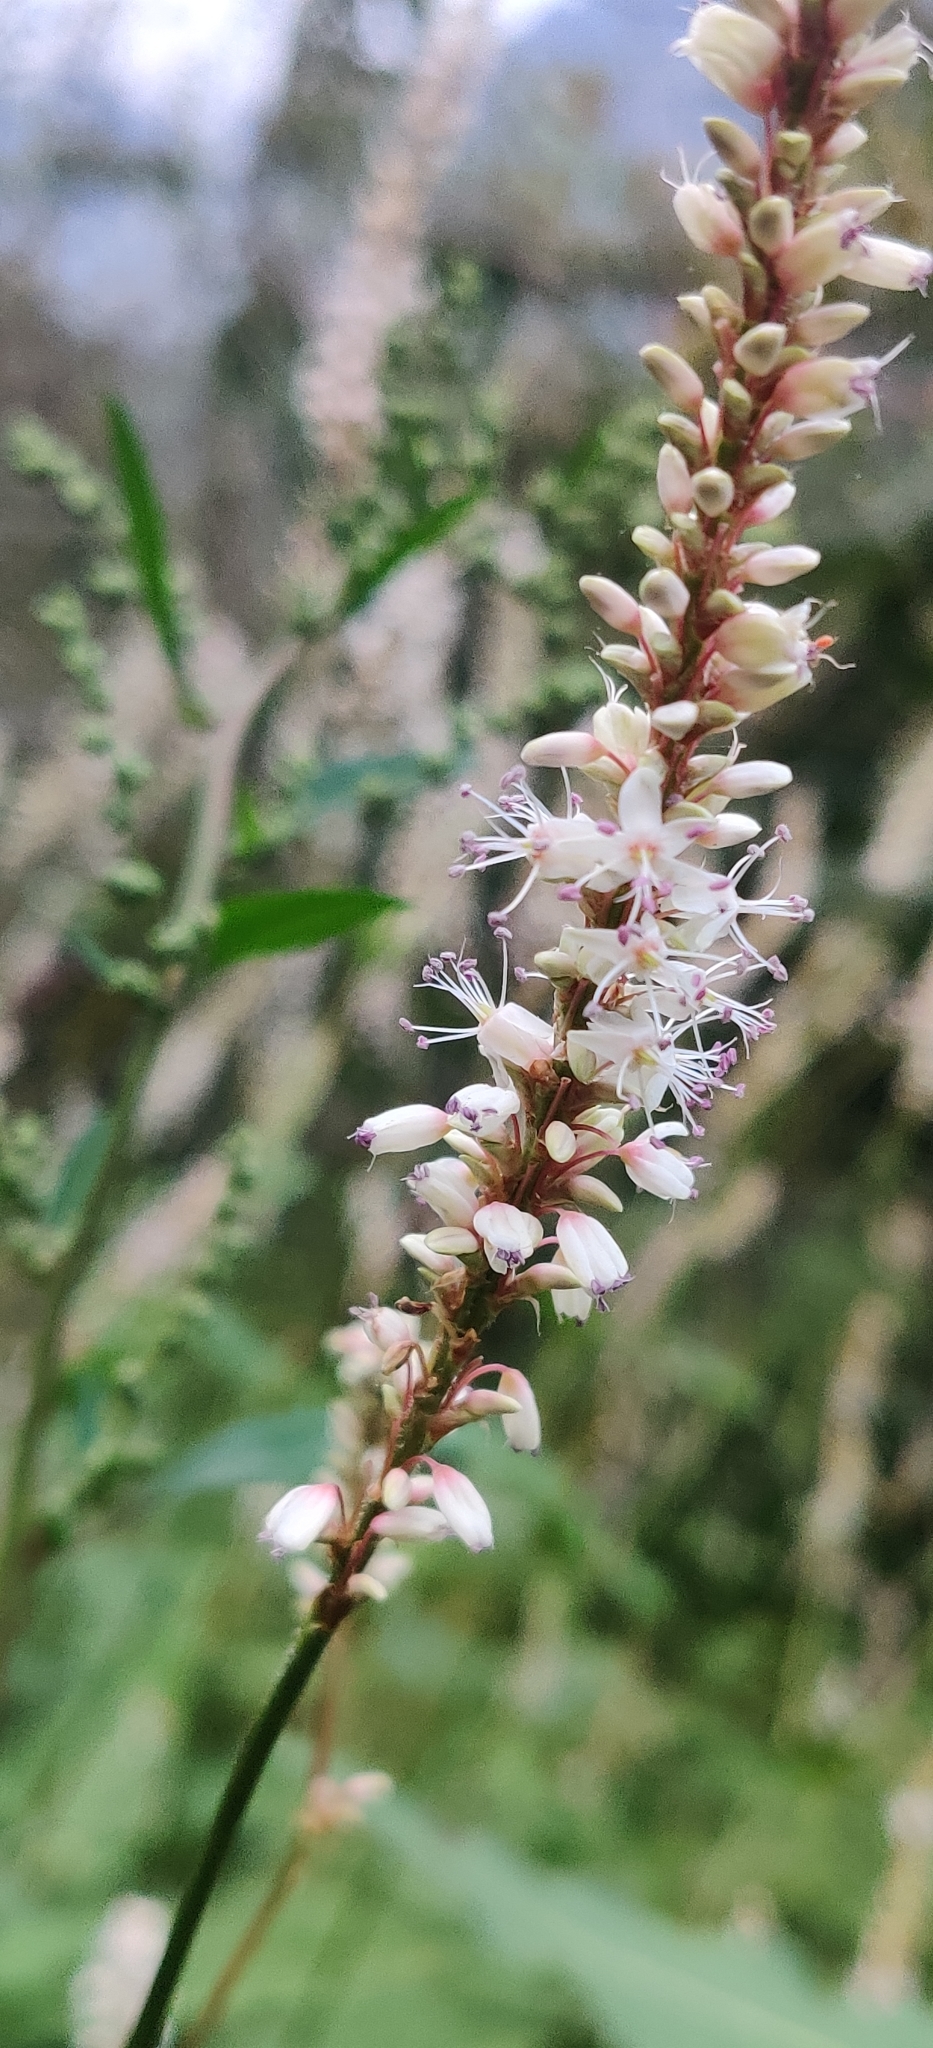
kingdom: Plantae
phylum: Tracheophyta
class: Magnoliopsida
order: Caryophyllales
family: Polygonaceae
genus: Bistorta
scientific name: Bistorta vivipara
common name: Alpine bistort
